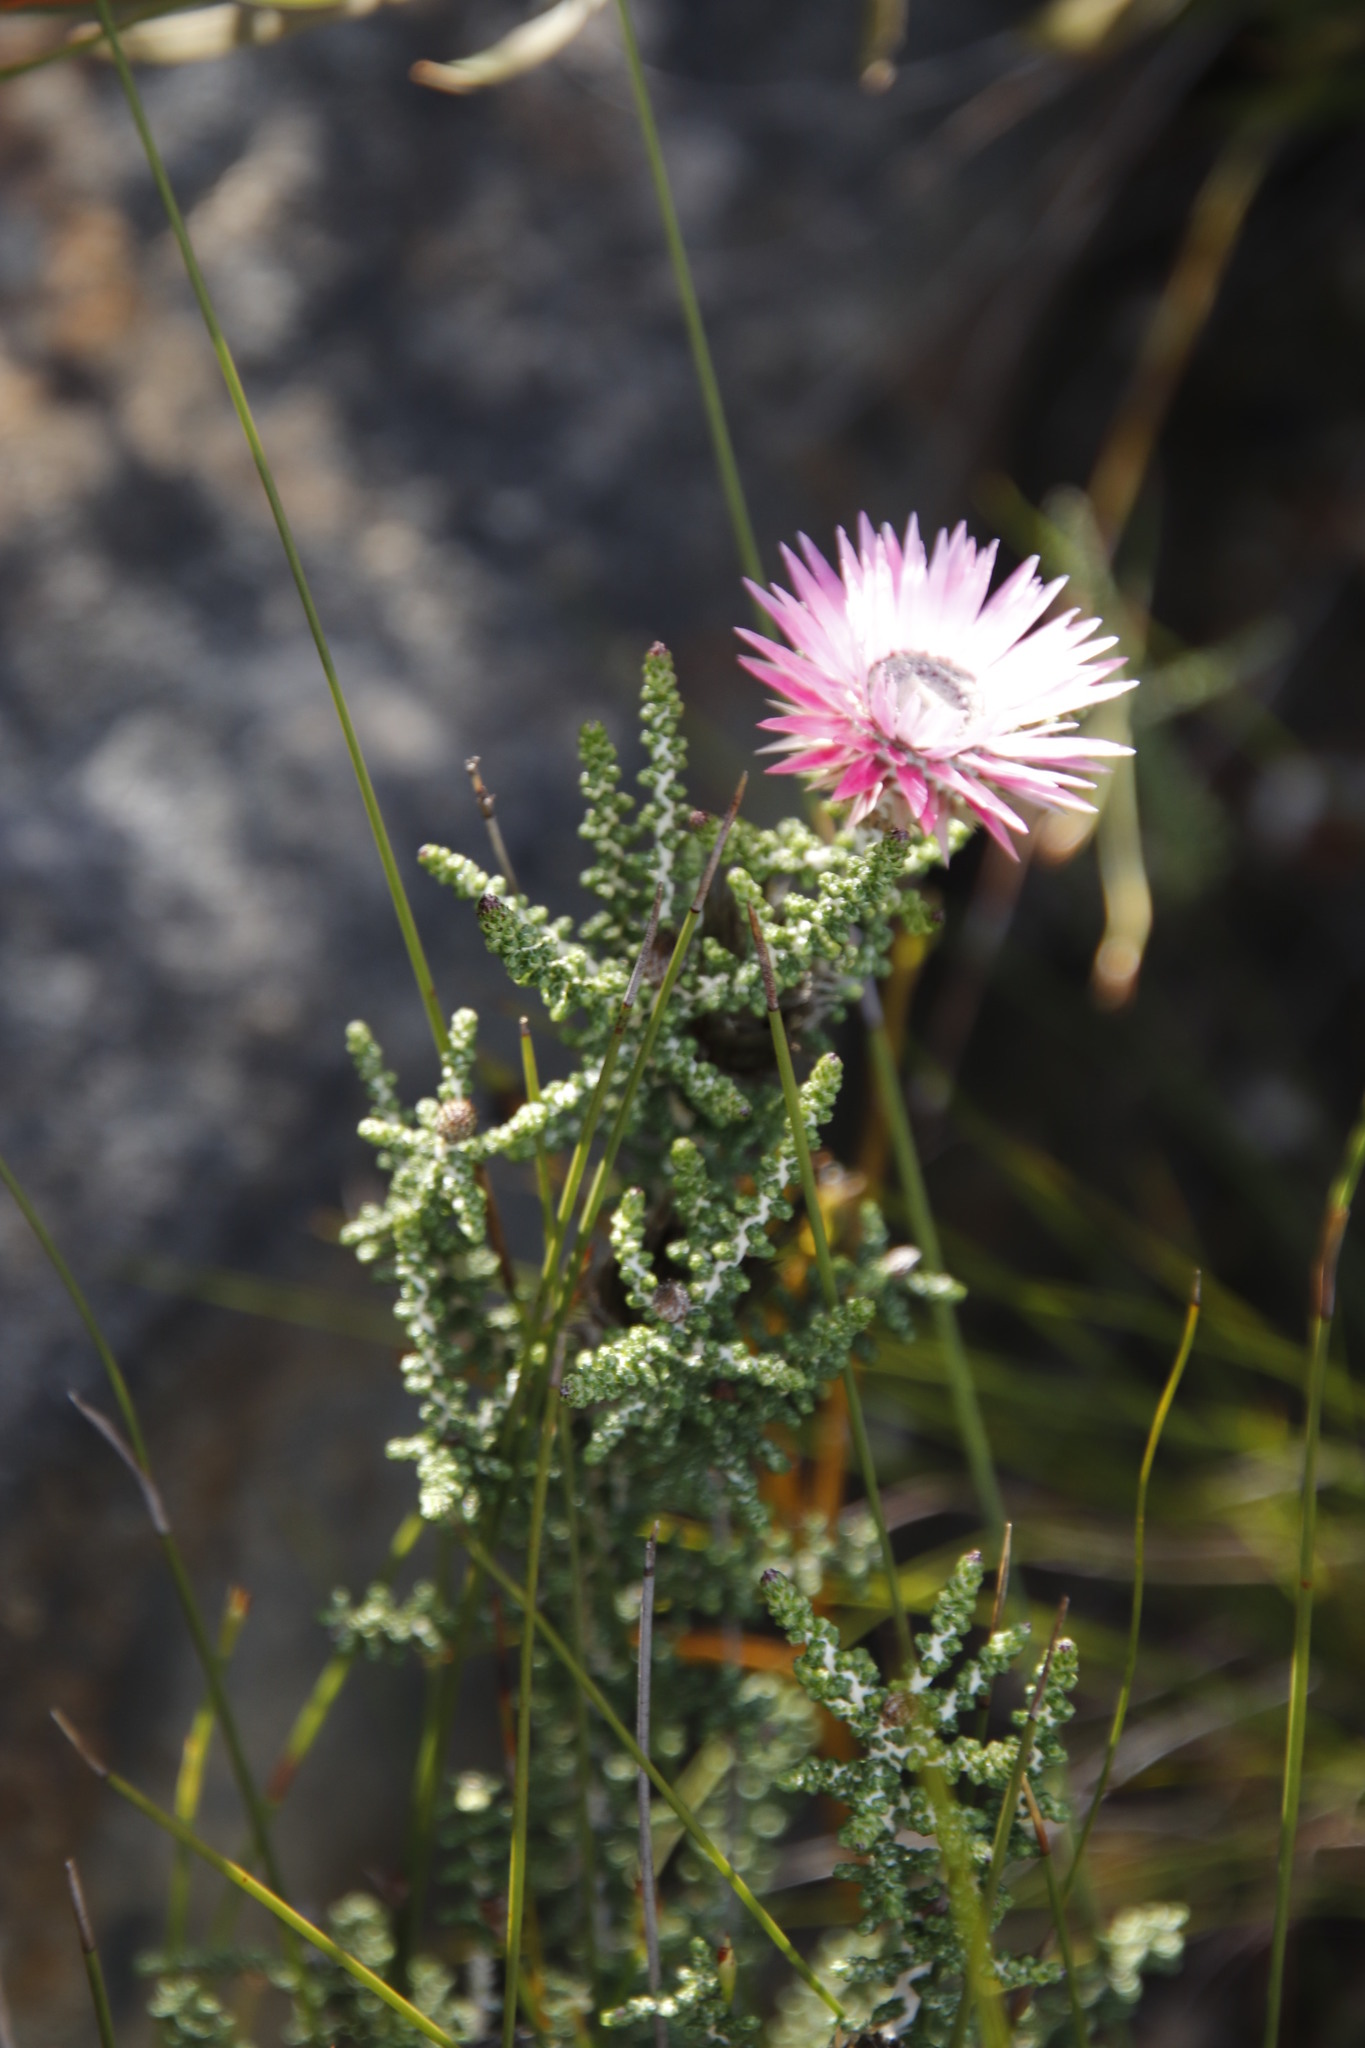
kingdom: Plantae
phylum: Tracheophyta
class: Magnoliopsida
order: Asterales
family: Asteraceae
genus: Phaenocoma
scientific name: Phaenocoma prolifera
